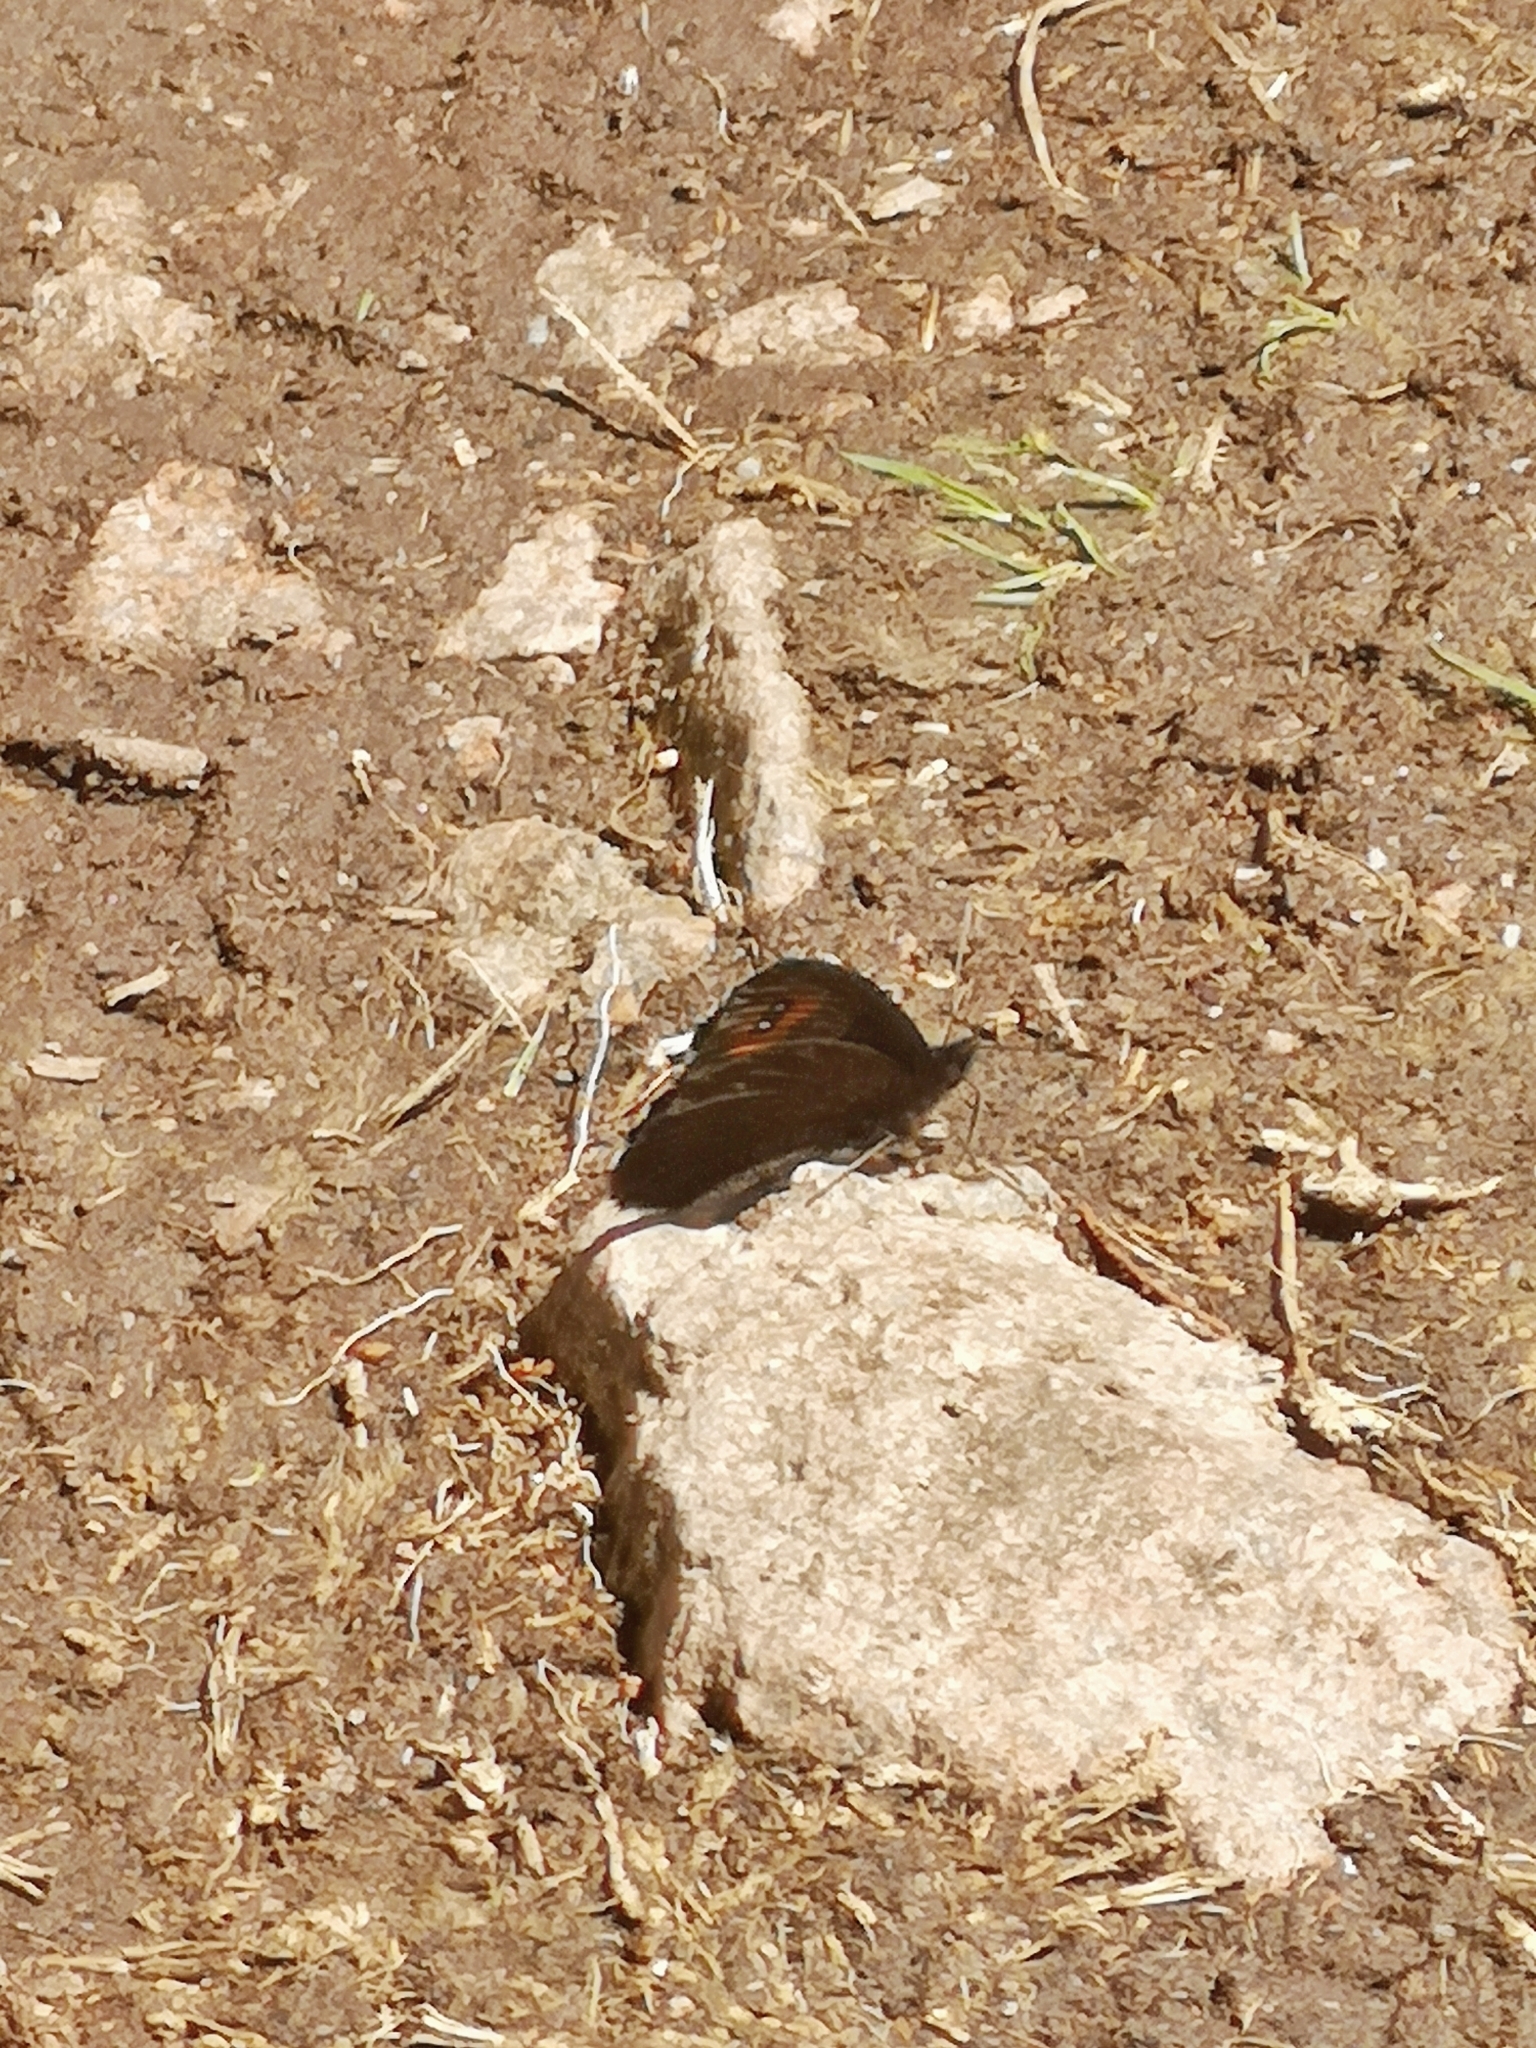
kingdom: Animalia
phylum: Arthropoda
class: Insecta
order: Lepidoptera
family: Nymphalidae
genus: Erebia
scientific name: Erebia meolans
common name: Piedmont ringlet
